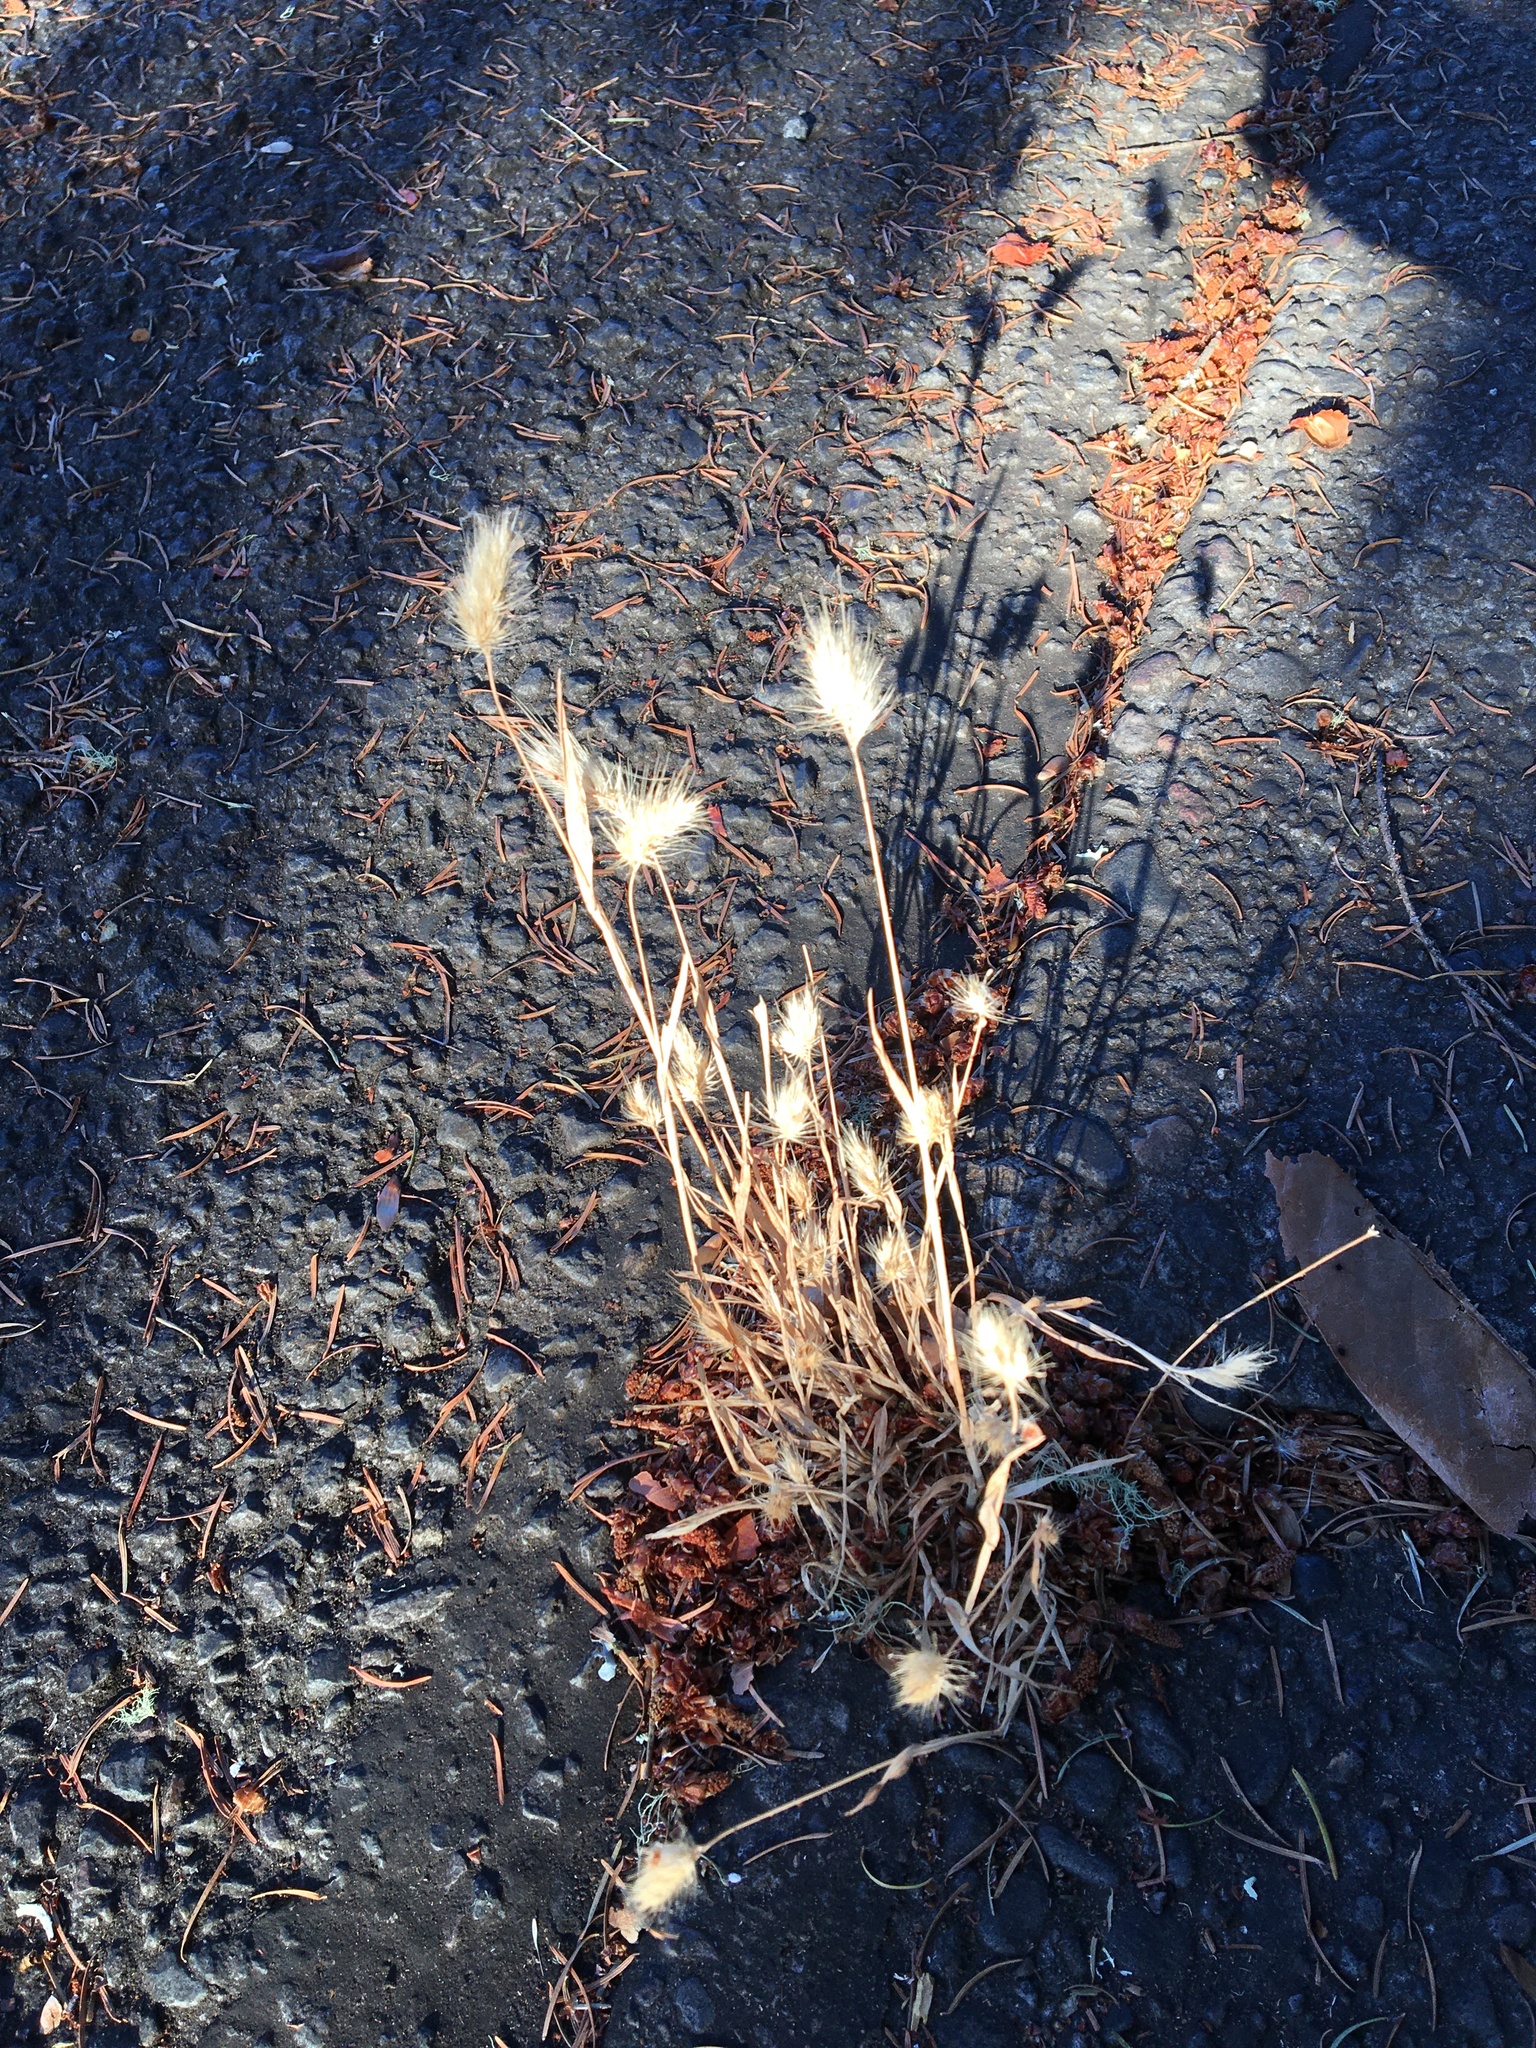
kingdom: Plantae
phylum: Tracheophyta
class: Liliopsida
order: Poales
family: Poaceae
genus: Cynosurus
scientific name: Cynosurus echinatus
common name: Rough dog's-tail
